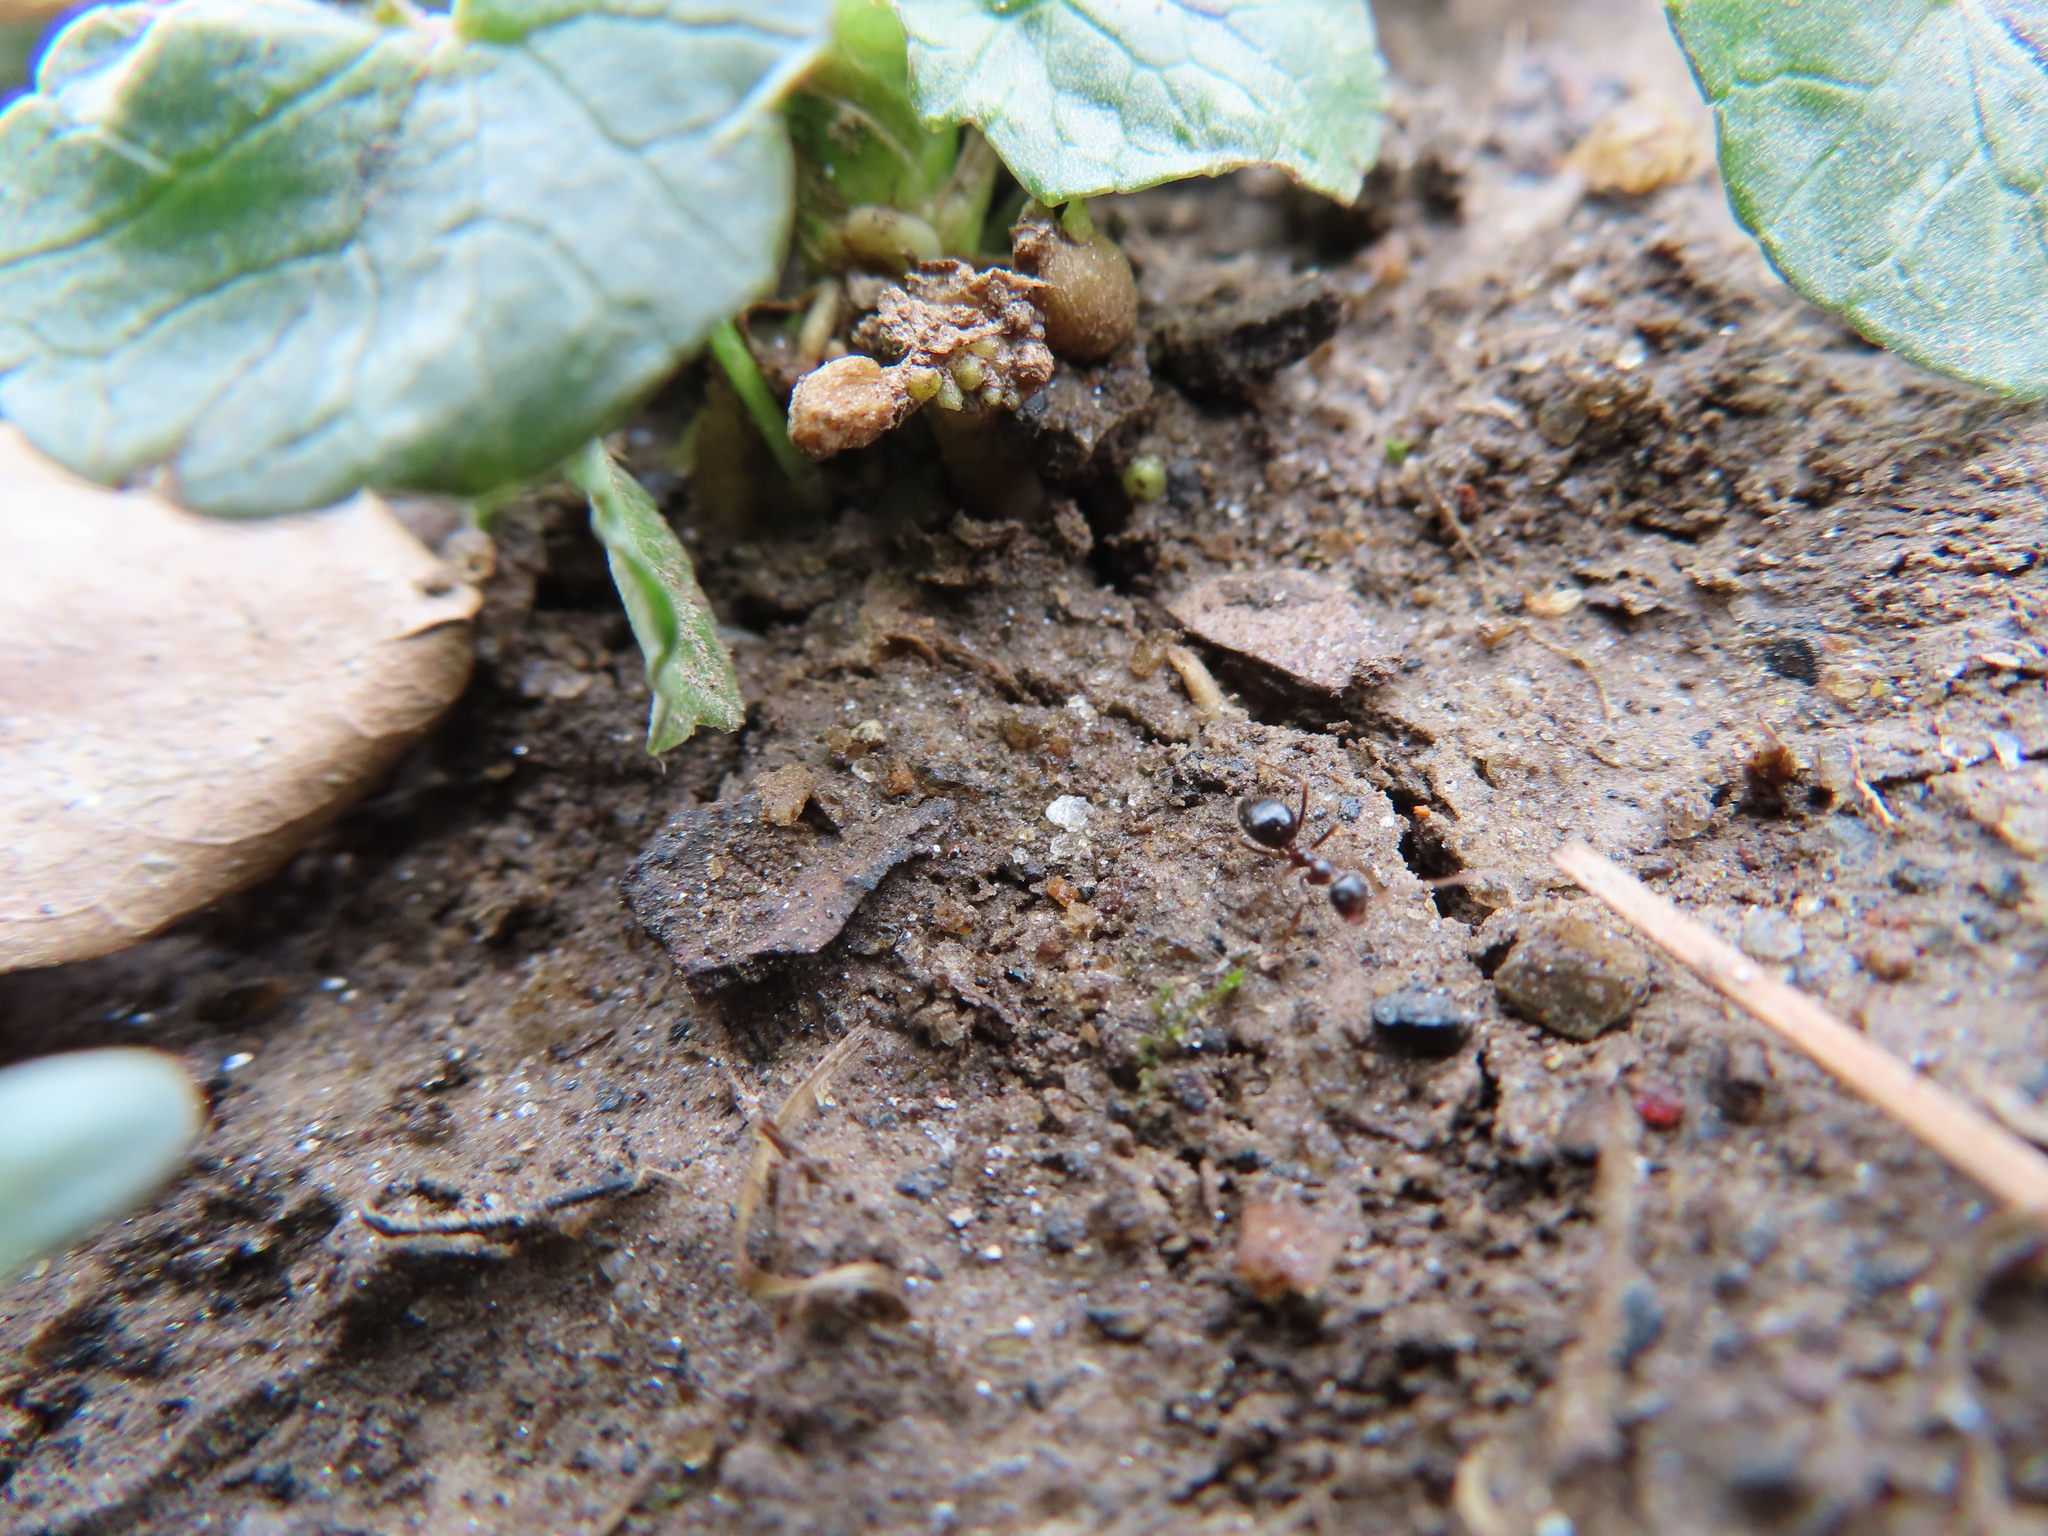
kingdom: Animalia
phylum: Arthropoda
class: Insecta
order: Hymenoptera
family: Formicidae
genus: Prenolepis
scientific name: Prenolepis imparis
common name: Small honey ant
